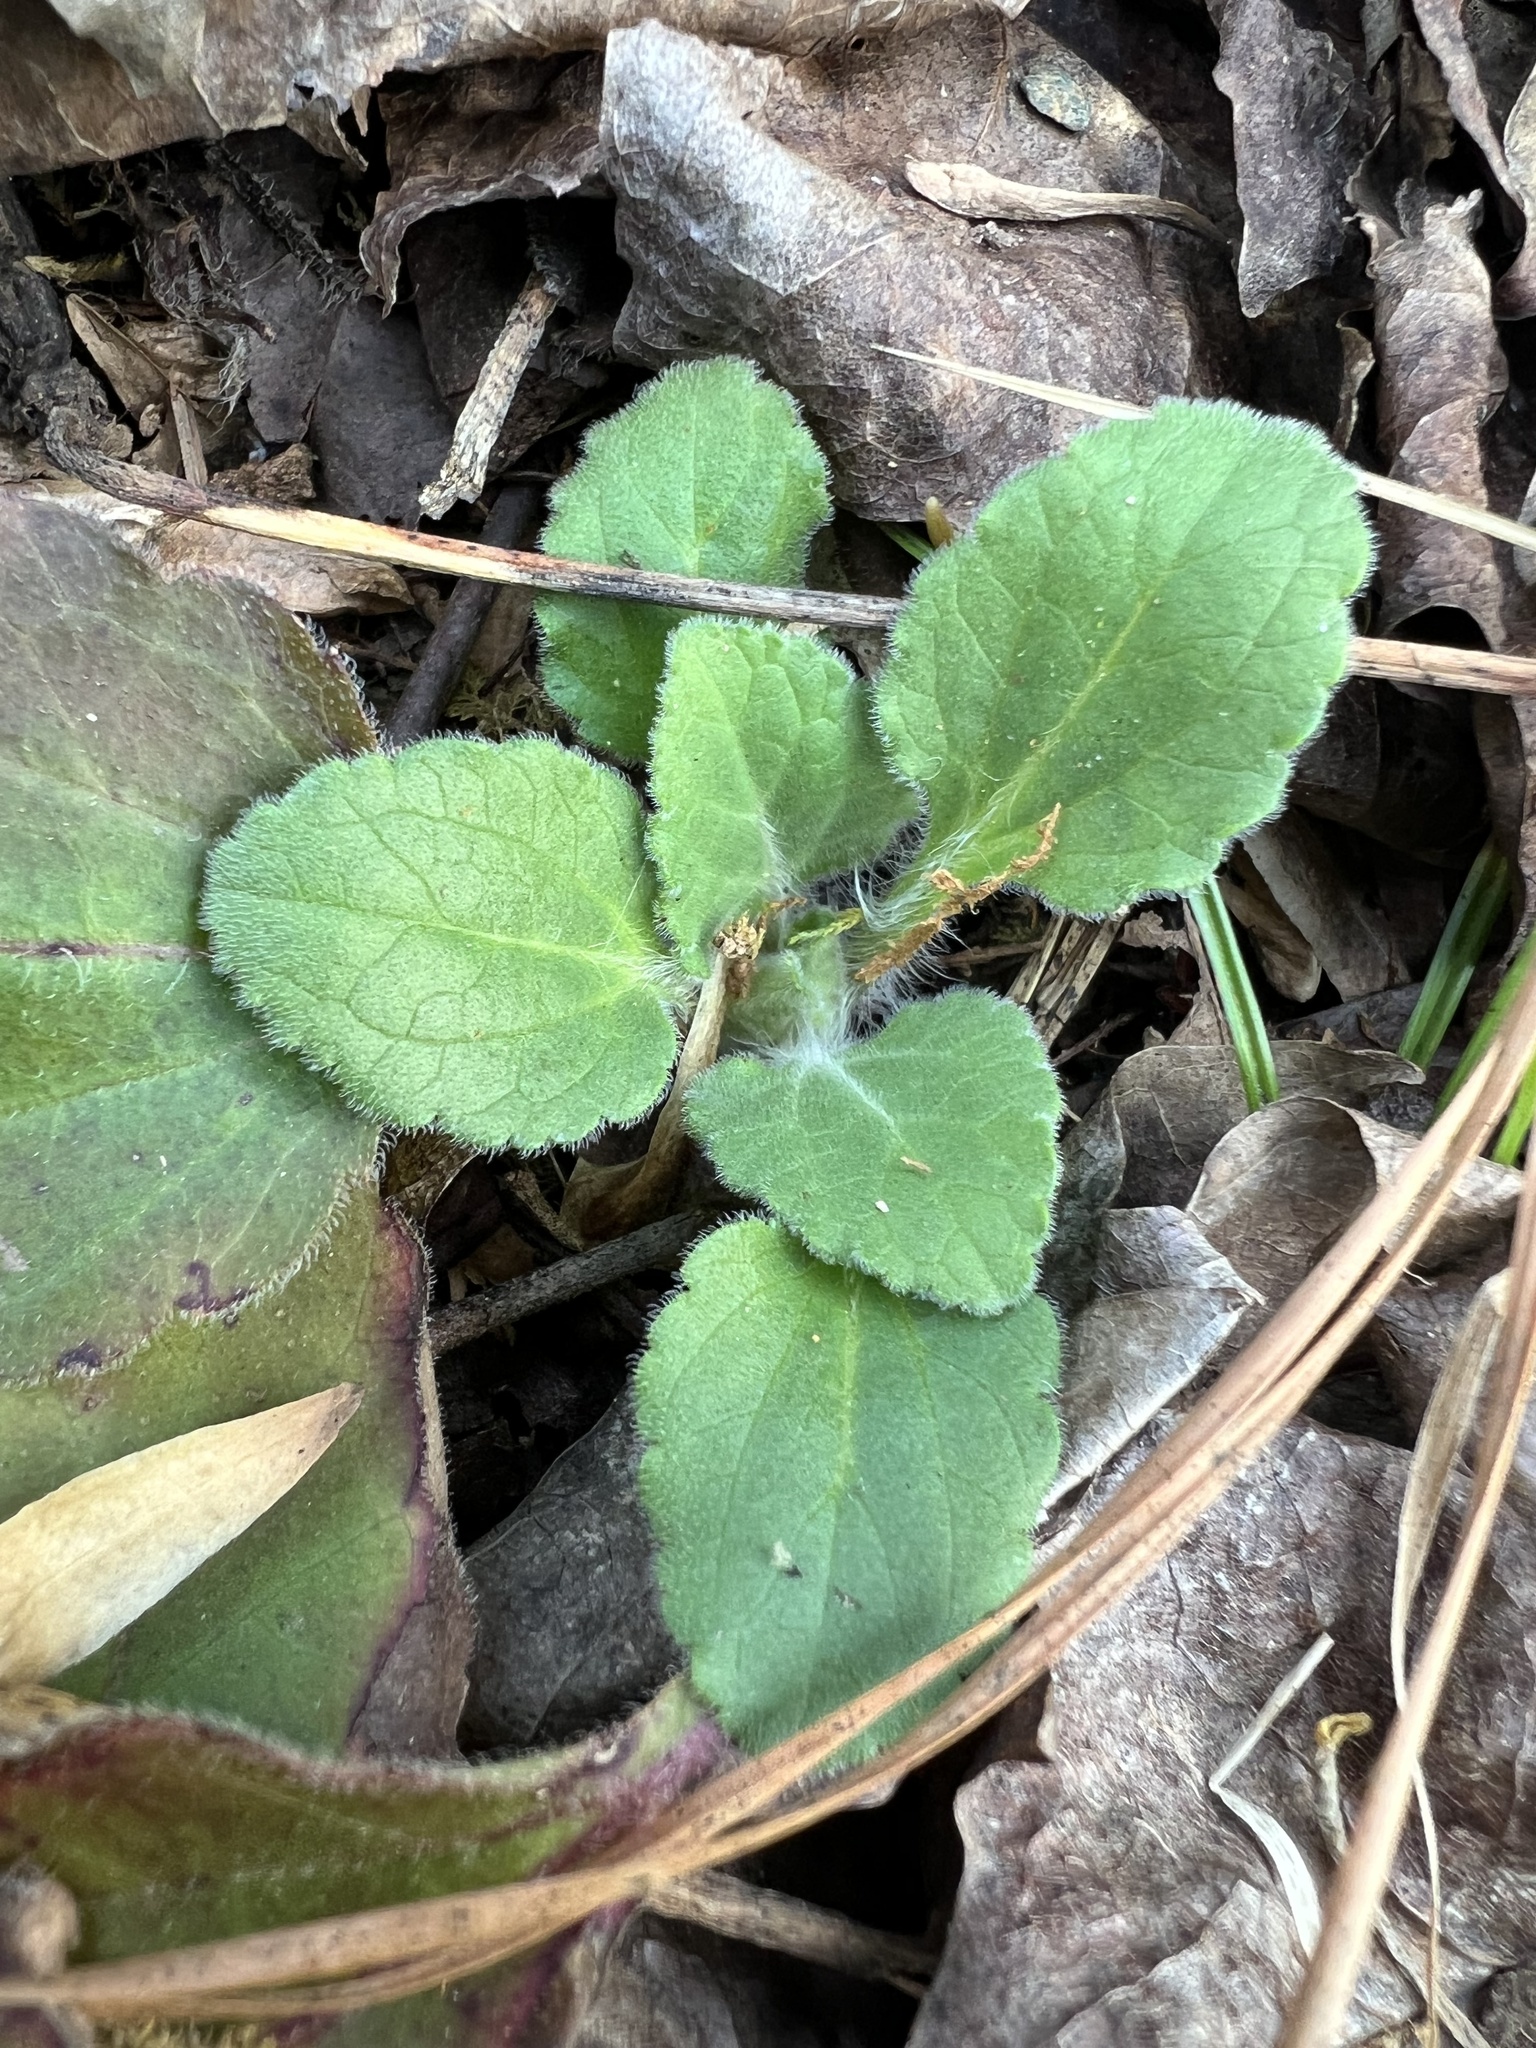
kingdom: Plantae
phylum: Tracheophyta
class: Magnoliopsida
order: Asterales
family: Asteraceae
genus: Chrysogonum
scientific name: Chrysogonum virginianum
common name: Golden-knee
